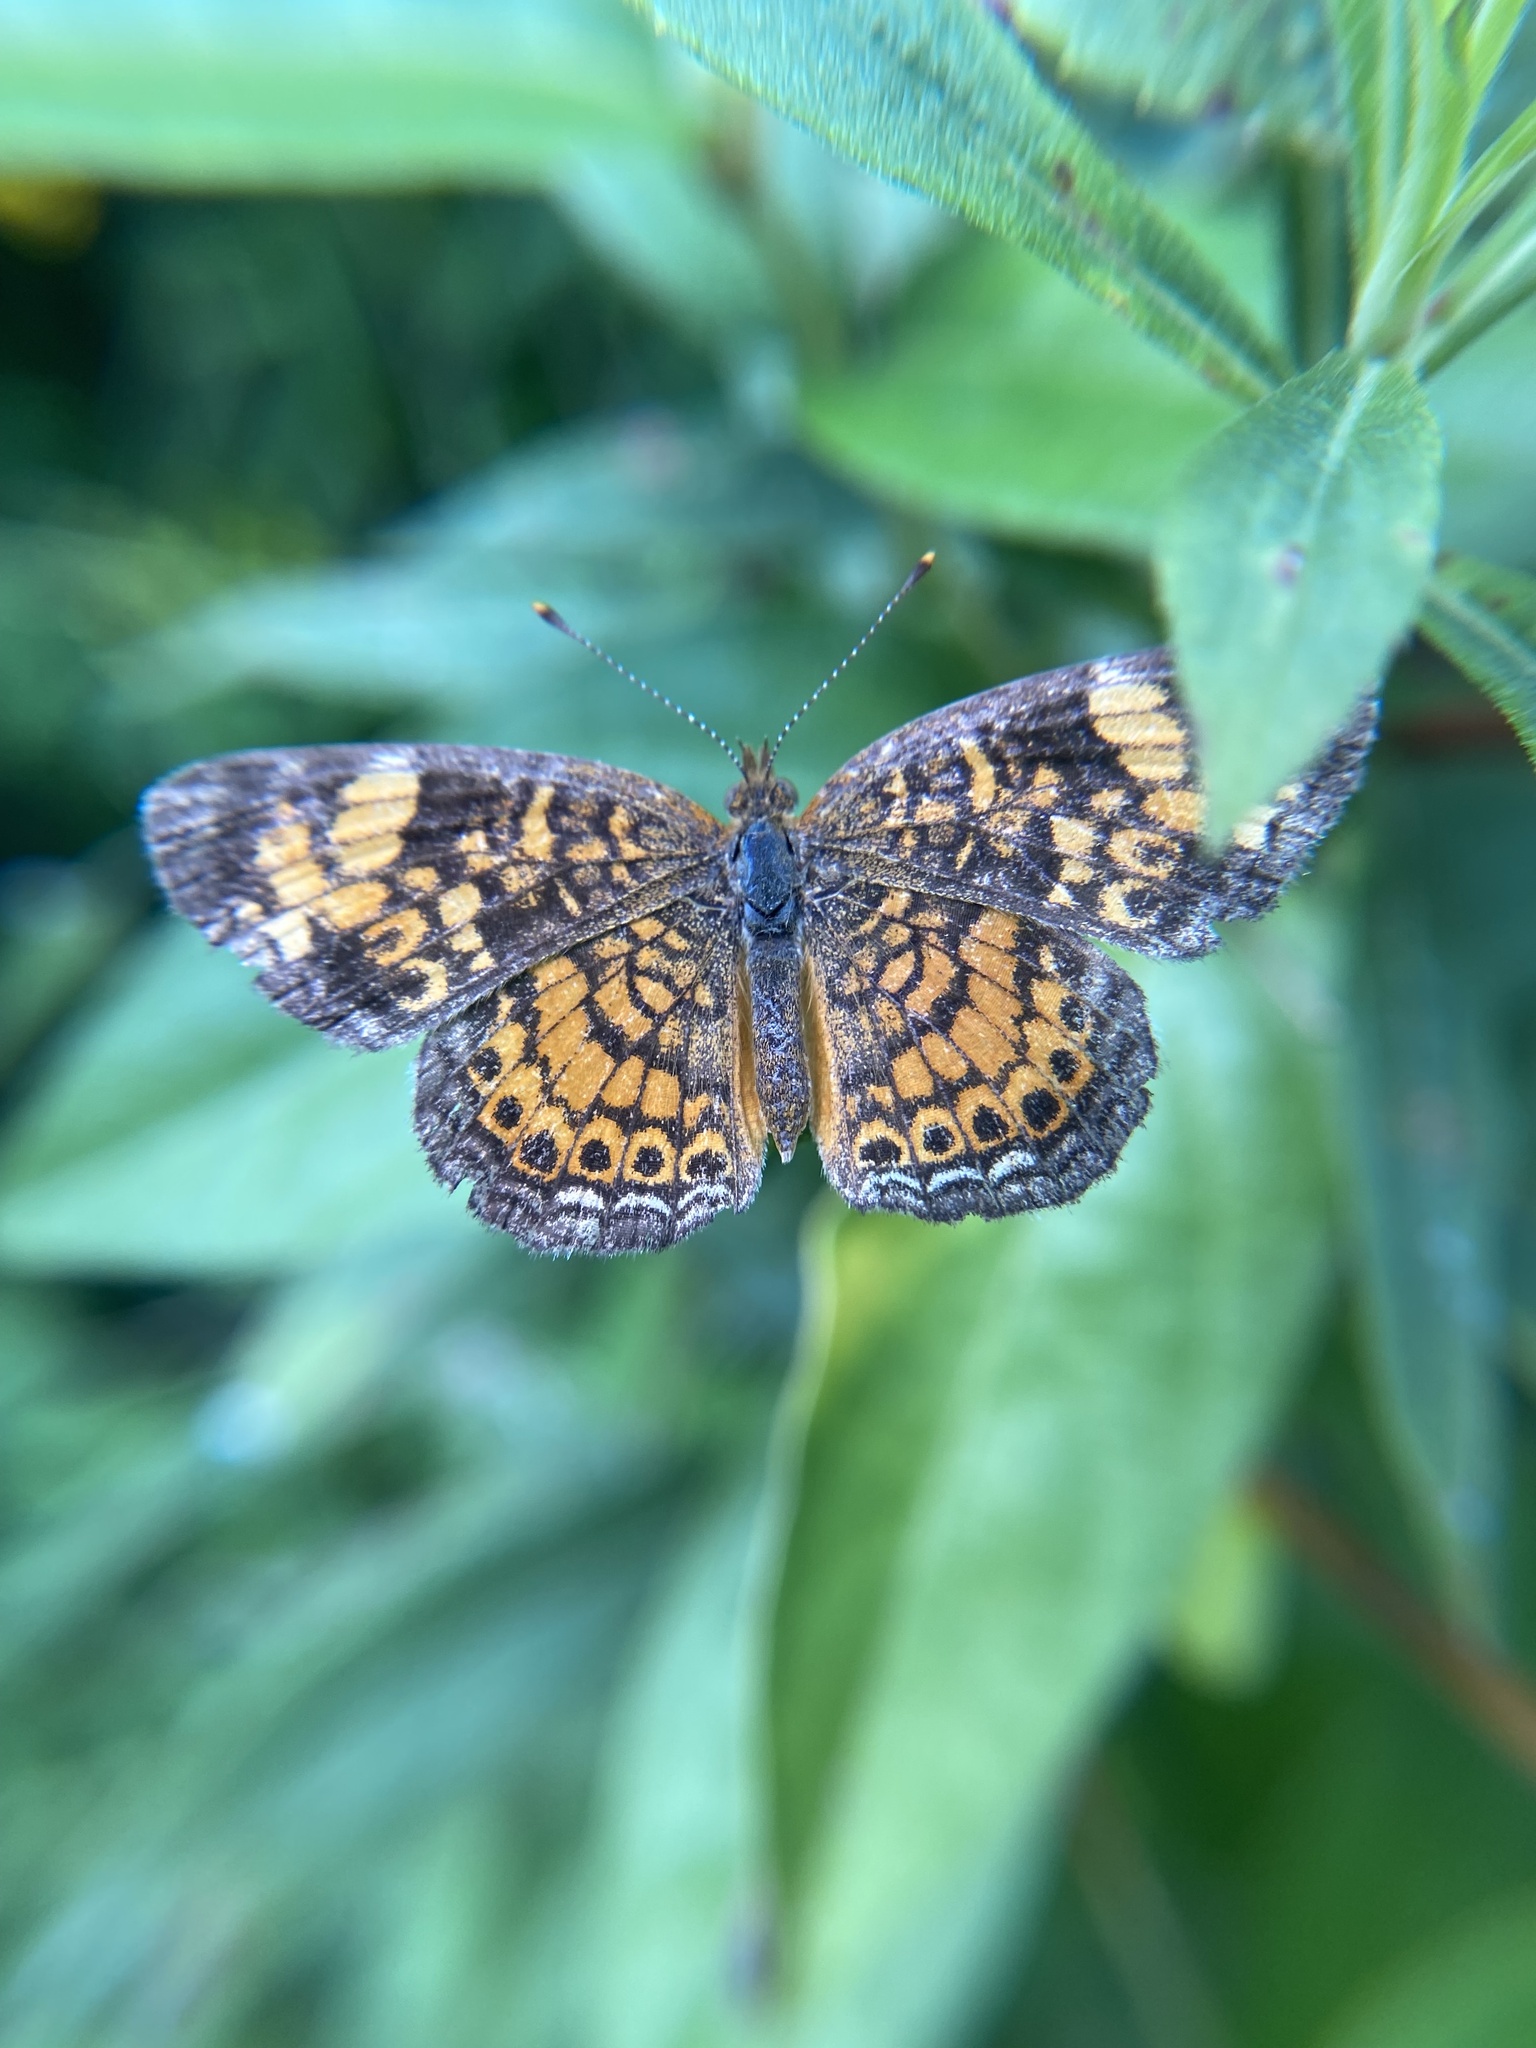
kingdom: Animalia
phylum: Arthropoda
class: Insecta
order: Lepidoptera
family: Nymphalidae
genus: Phyciodes
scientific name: Phyciodes tharos
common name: Pearl crescent
